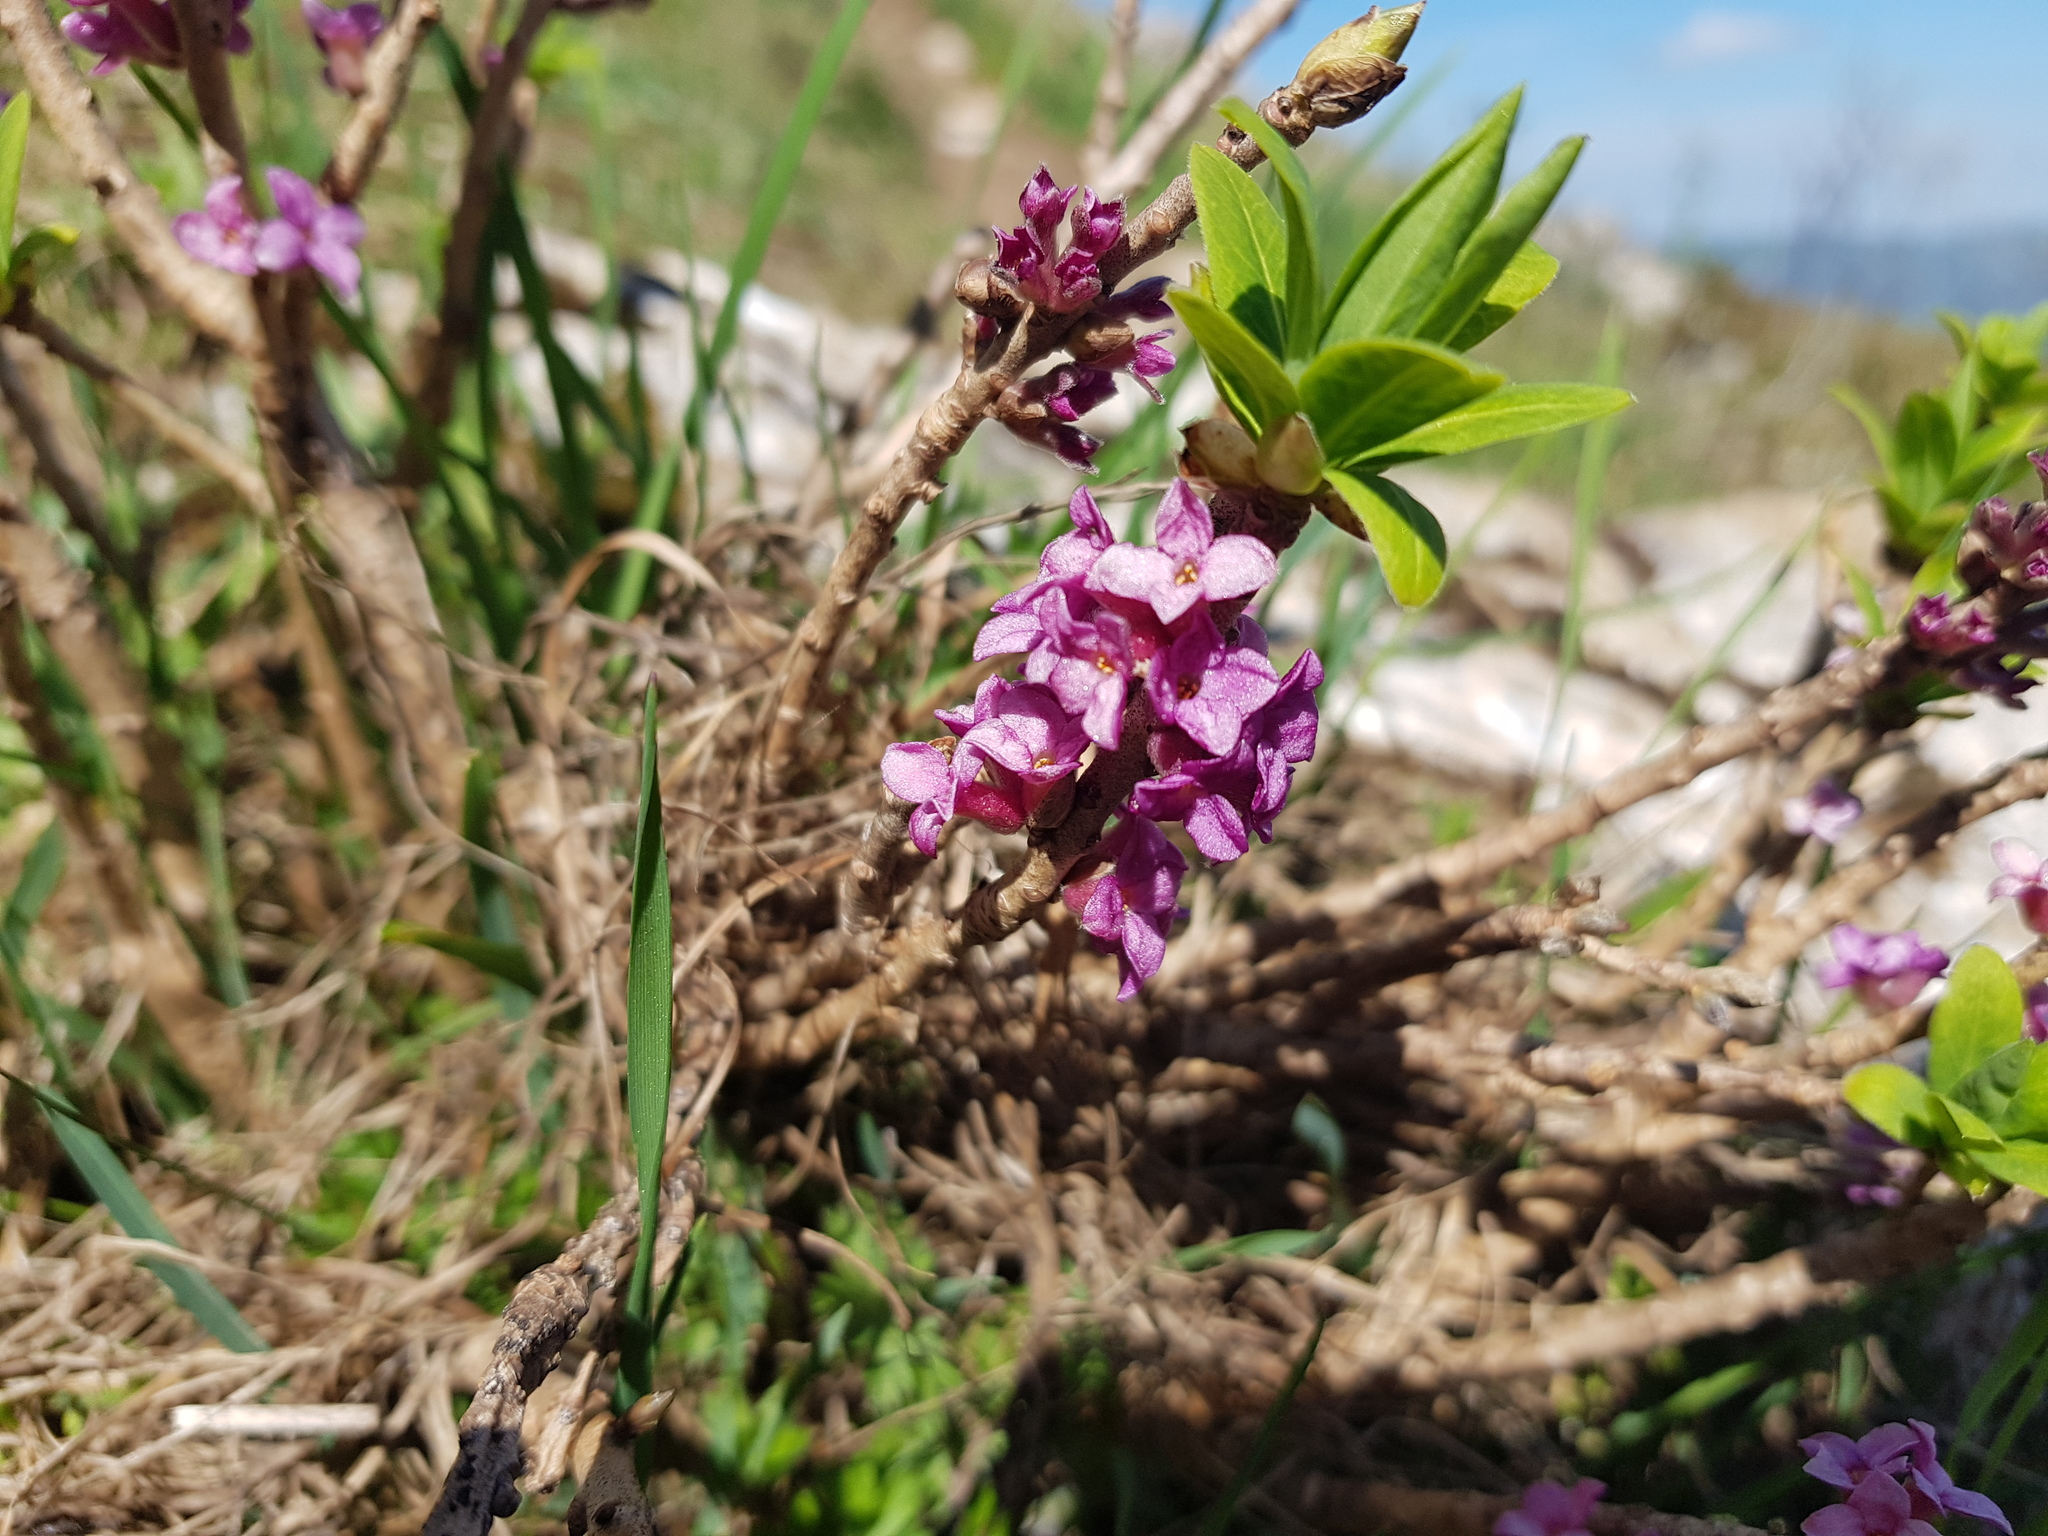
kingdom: Plantae
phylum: Tracheophyta
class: Magnoliopsida
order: Malvales
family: Thymelaeaceae
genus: Daphne
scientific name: Daphne mezereum
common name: Mezereon
